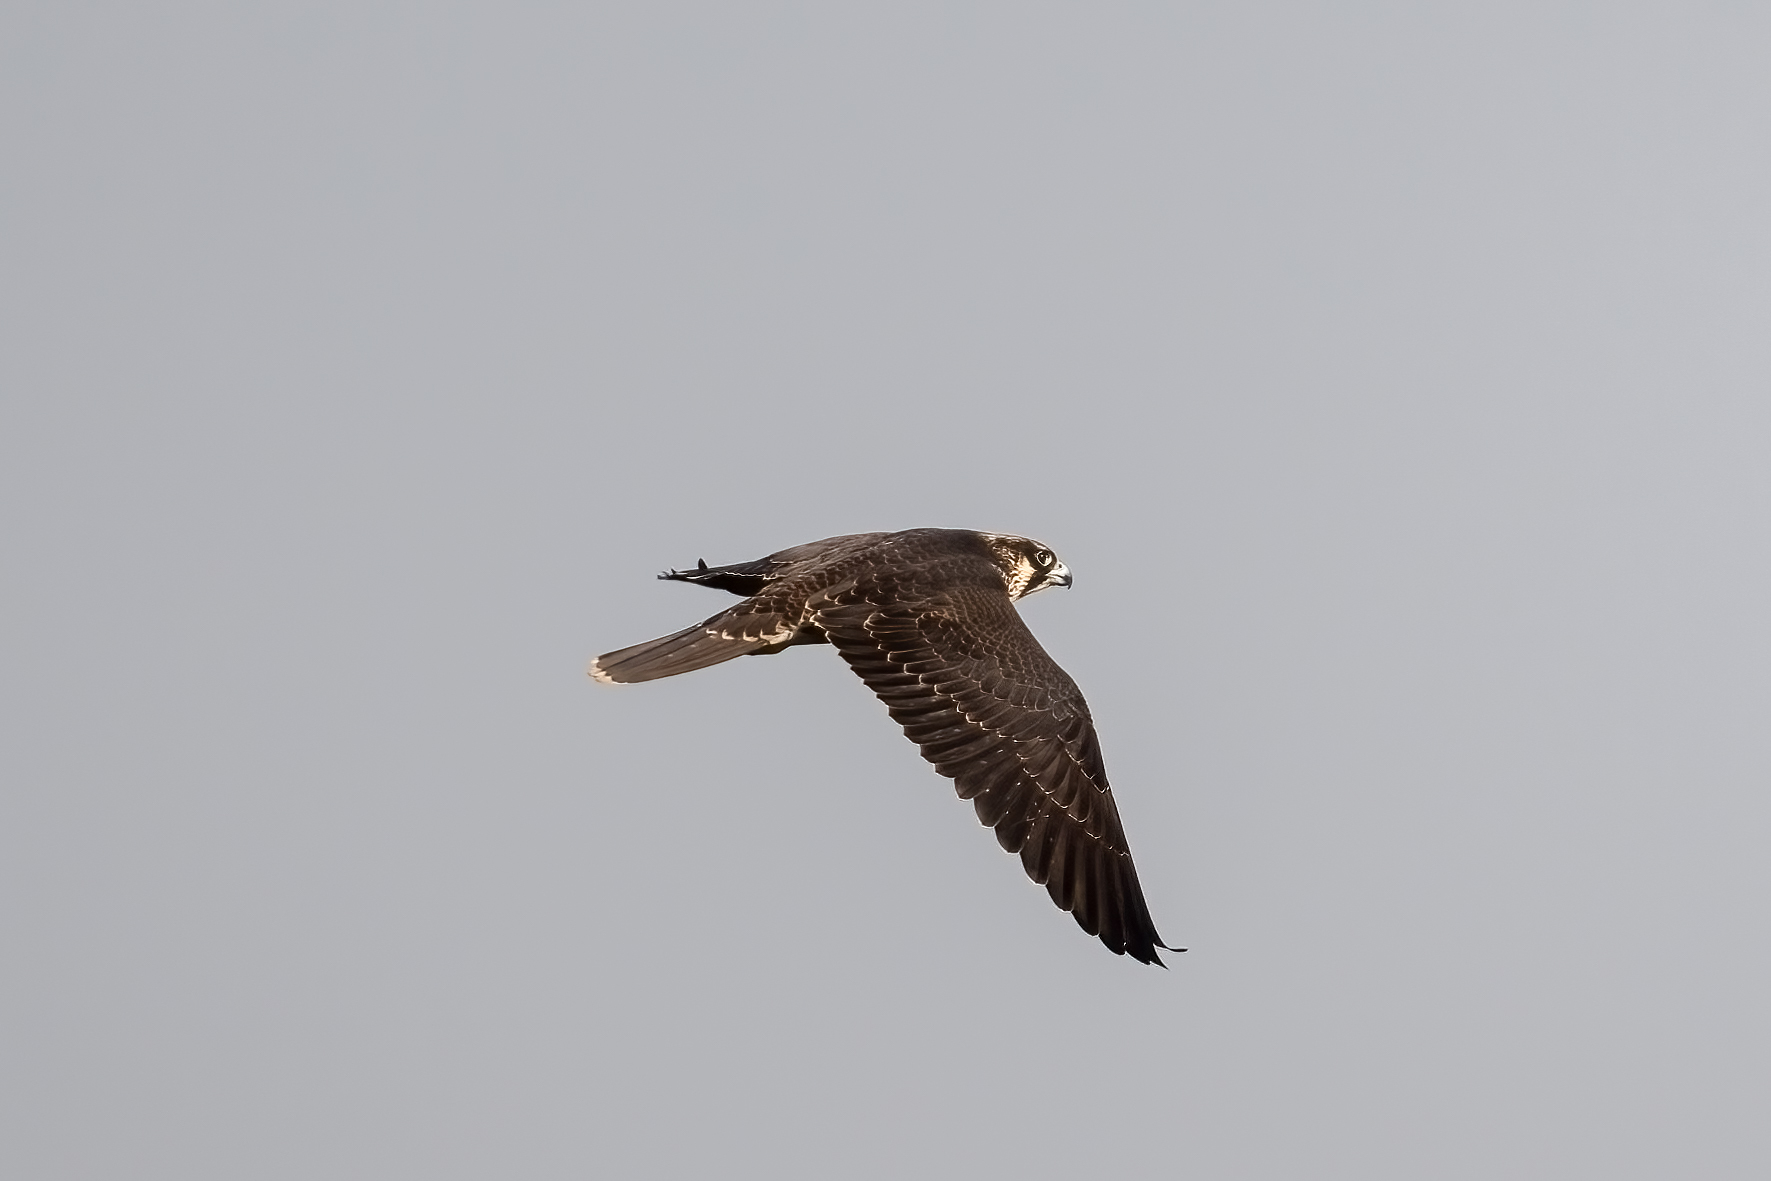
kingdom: Animalia
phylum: Chordata
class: Aves
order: Falconiformes
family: Falconidae
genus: Falco
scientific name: Falco peregrinus
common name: Peregrine falcon
